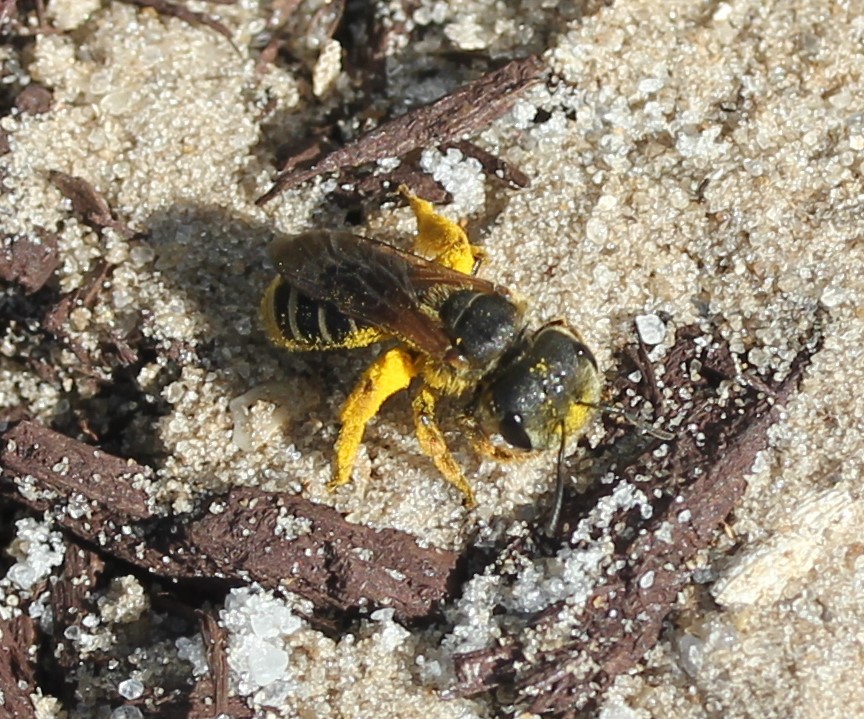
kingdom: Animalia
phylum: Arthropoda
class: Insecta
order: Hymenoptera
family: Halictidae
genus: Halictus
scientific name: Halictus poeyi
